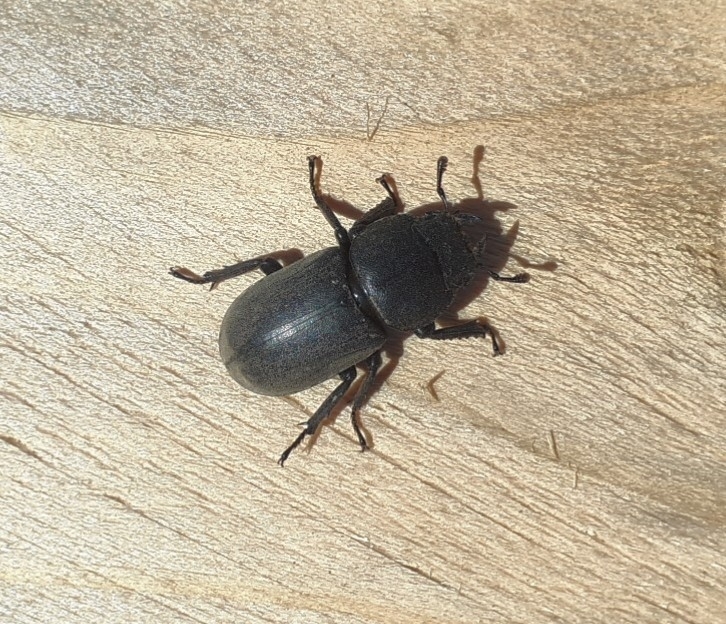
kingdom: Animalia
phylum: Arthropoda
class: Insecta
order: Coleoptera
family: Lucanidae
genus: Dorcus
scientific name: Dorcus parallelipipedus
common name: Lesser stag beetle
